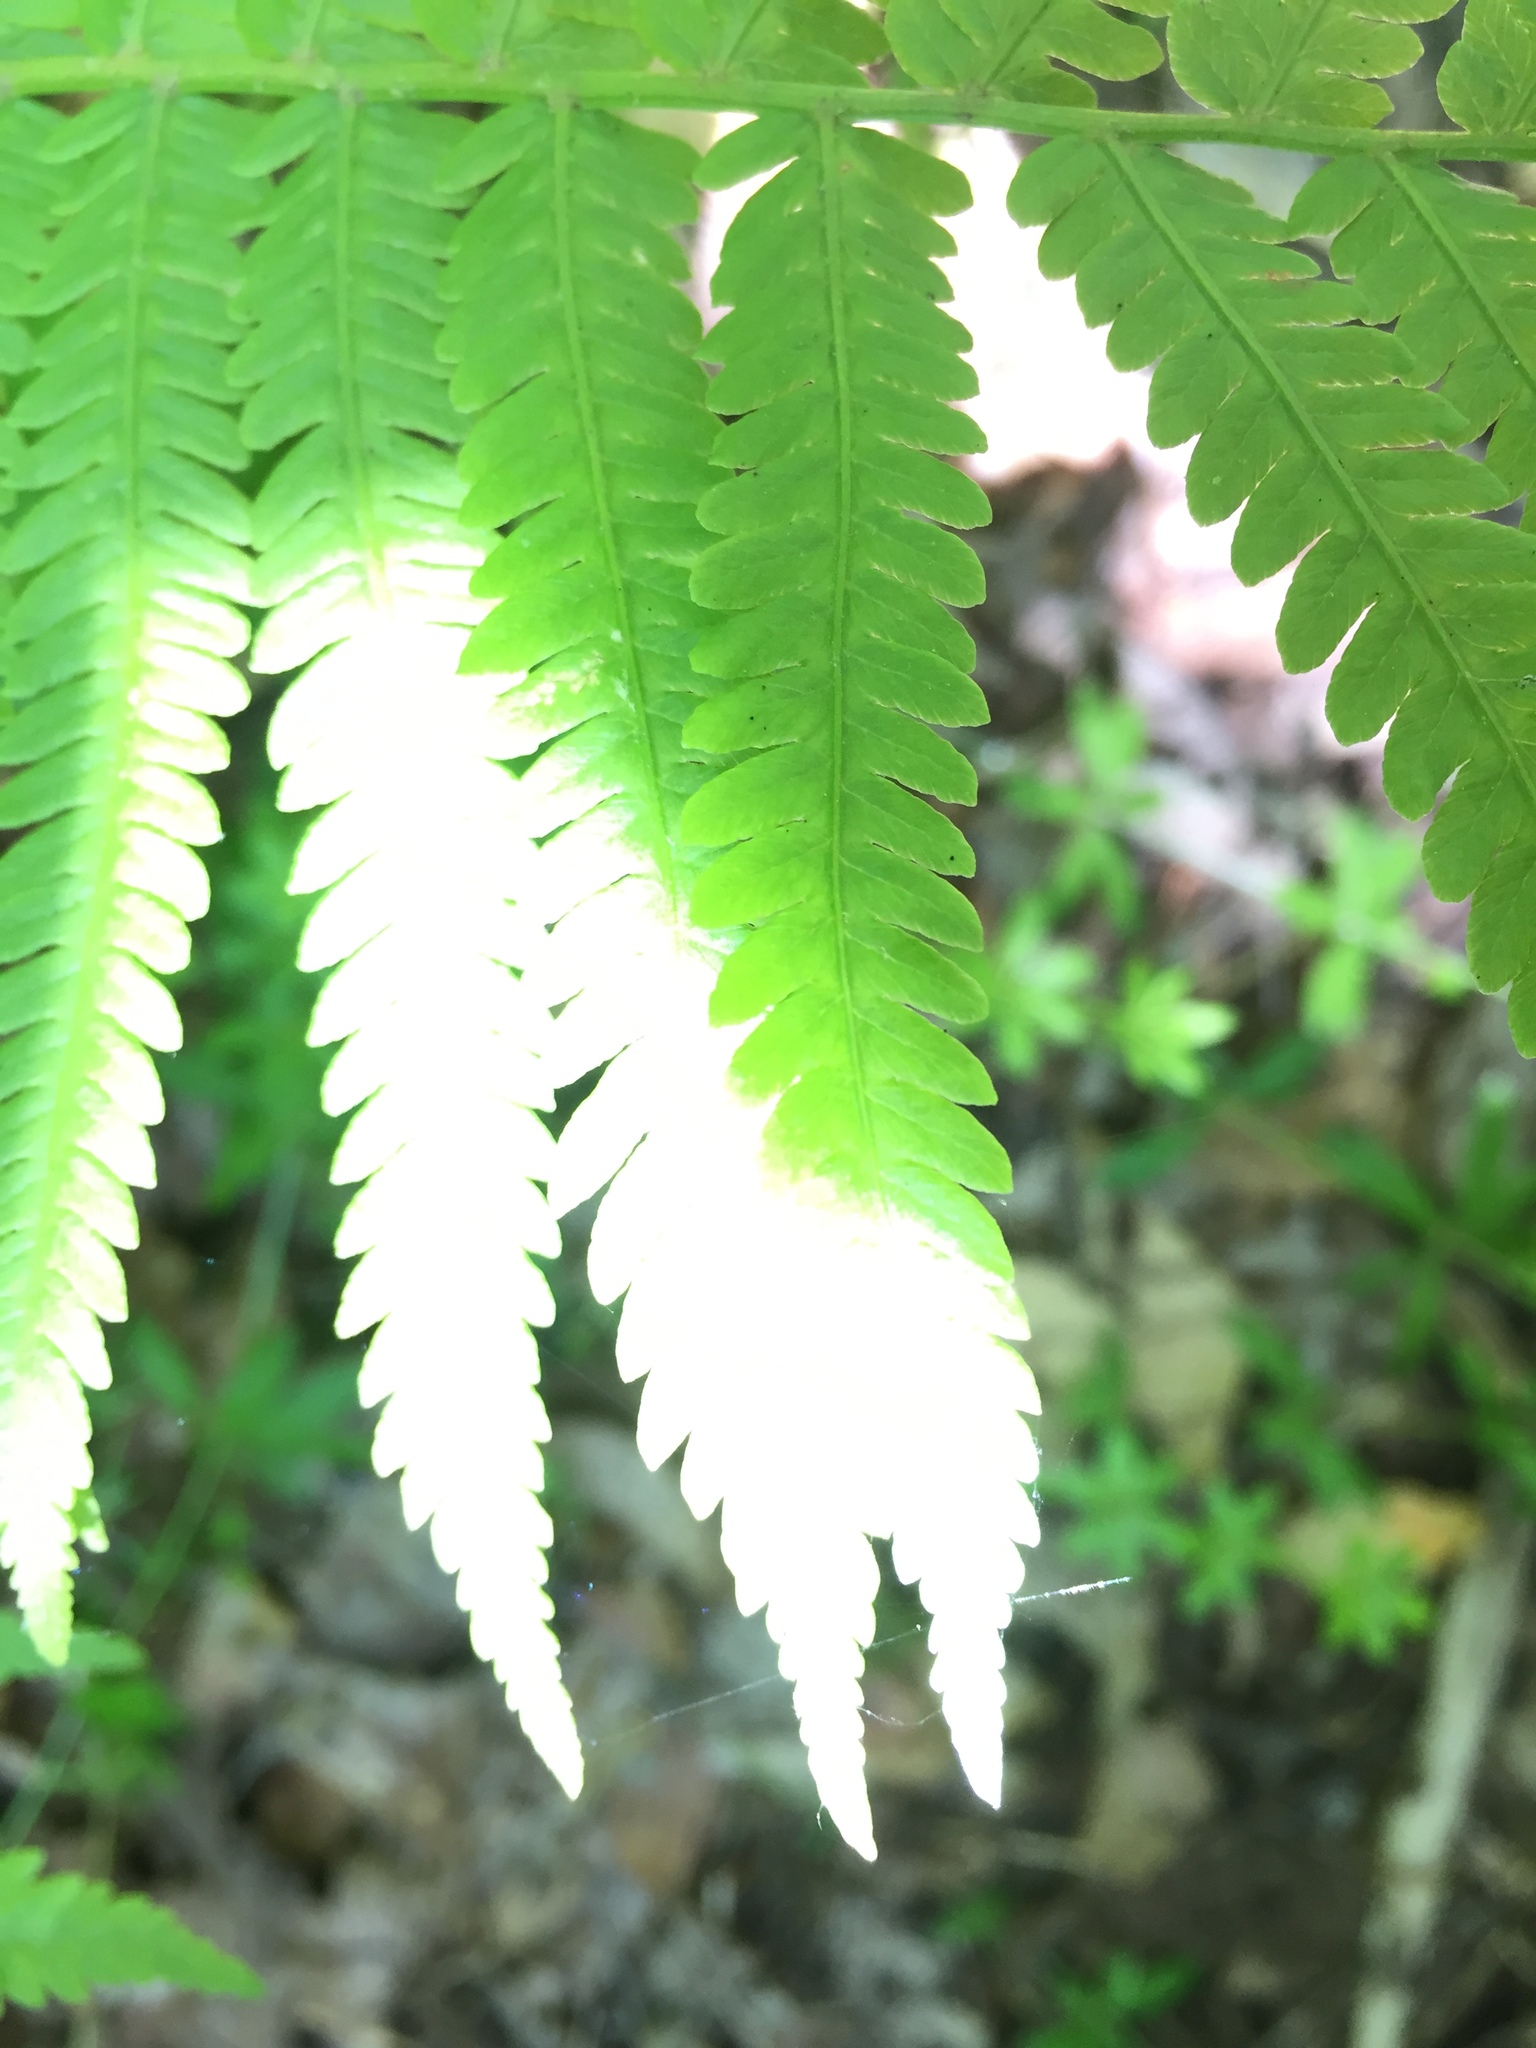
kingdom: Plantae
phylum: Tracheophyta
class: Polypodiopsida
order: Polypodiales
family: Onocleaceae
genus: Matteuccia
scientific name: Matteuccia struthiopteris
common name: Ostrich fern
